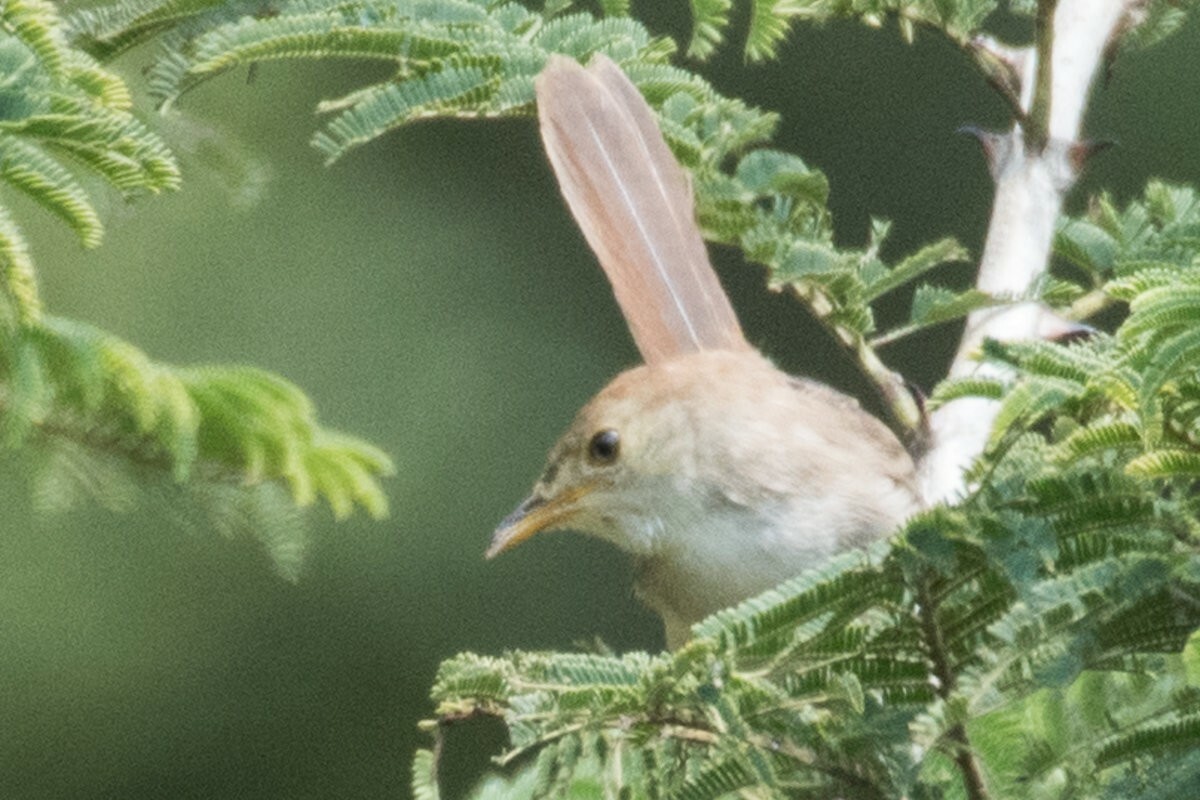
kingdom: Animalia
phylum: Chordata
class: Aves
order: Passeriformes
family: Cisticolidae
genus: Cisticola
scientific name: Cisticola aberrans
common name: Lazy cisticola
